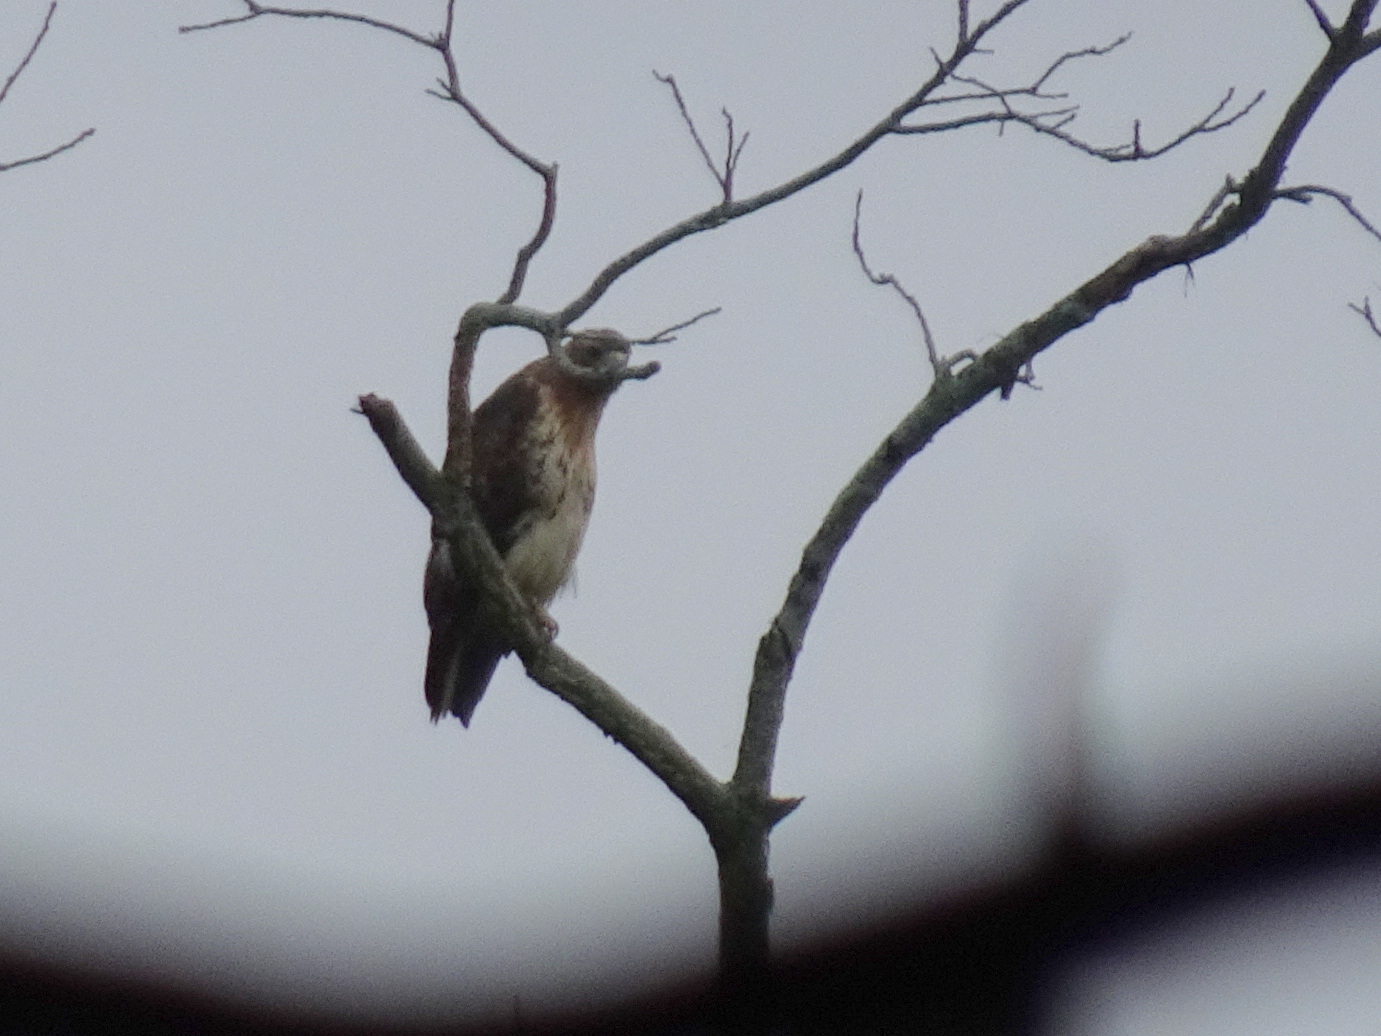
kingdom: Animalia
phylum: Chordata
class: Aves
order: Accipitriformes
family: Accipitridae
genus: Buteo
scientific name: Buteo jamaicensis
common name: Red-tailed hawk
